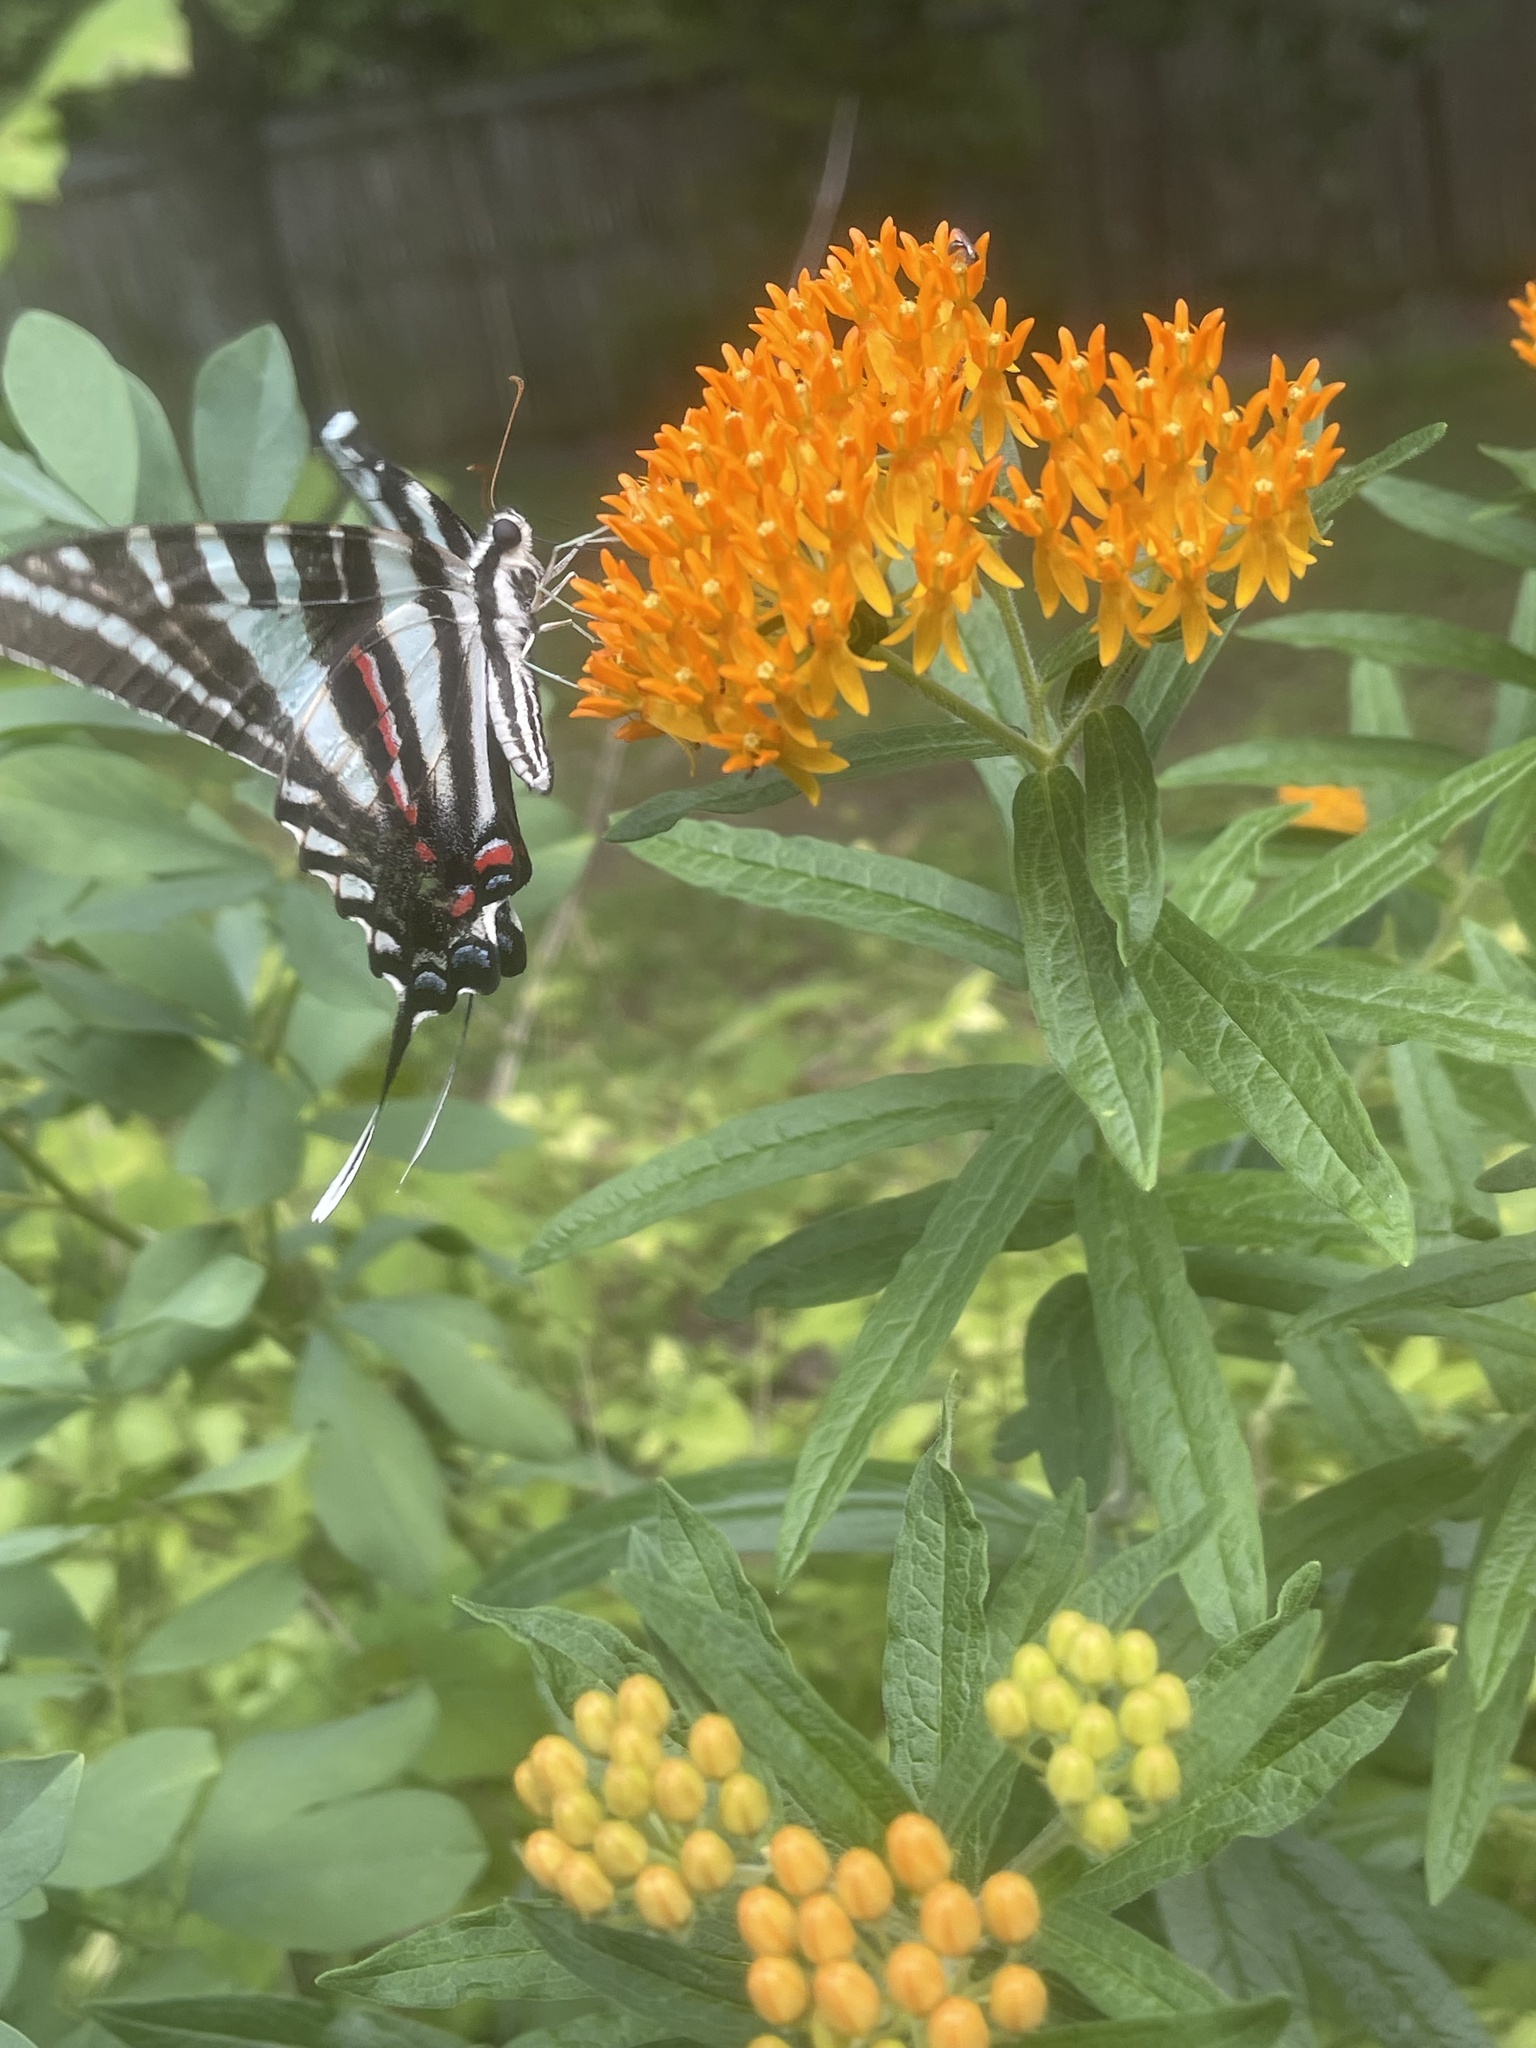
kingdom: Animalia
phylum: Arthropoda
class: Insecta
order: Lepidoptera
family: Papilionidae
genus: Protographium
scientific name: Protographium marcellus
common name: Zebra swallowtail
